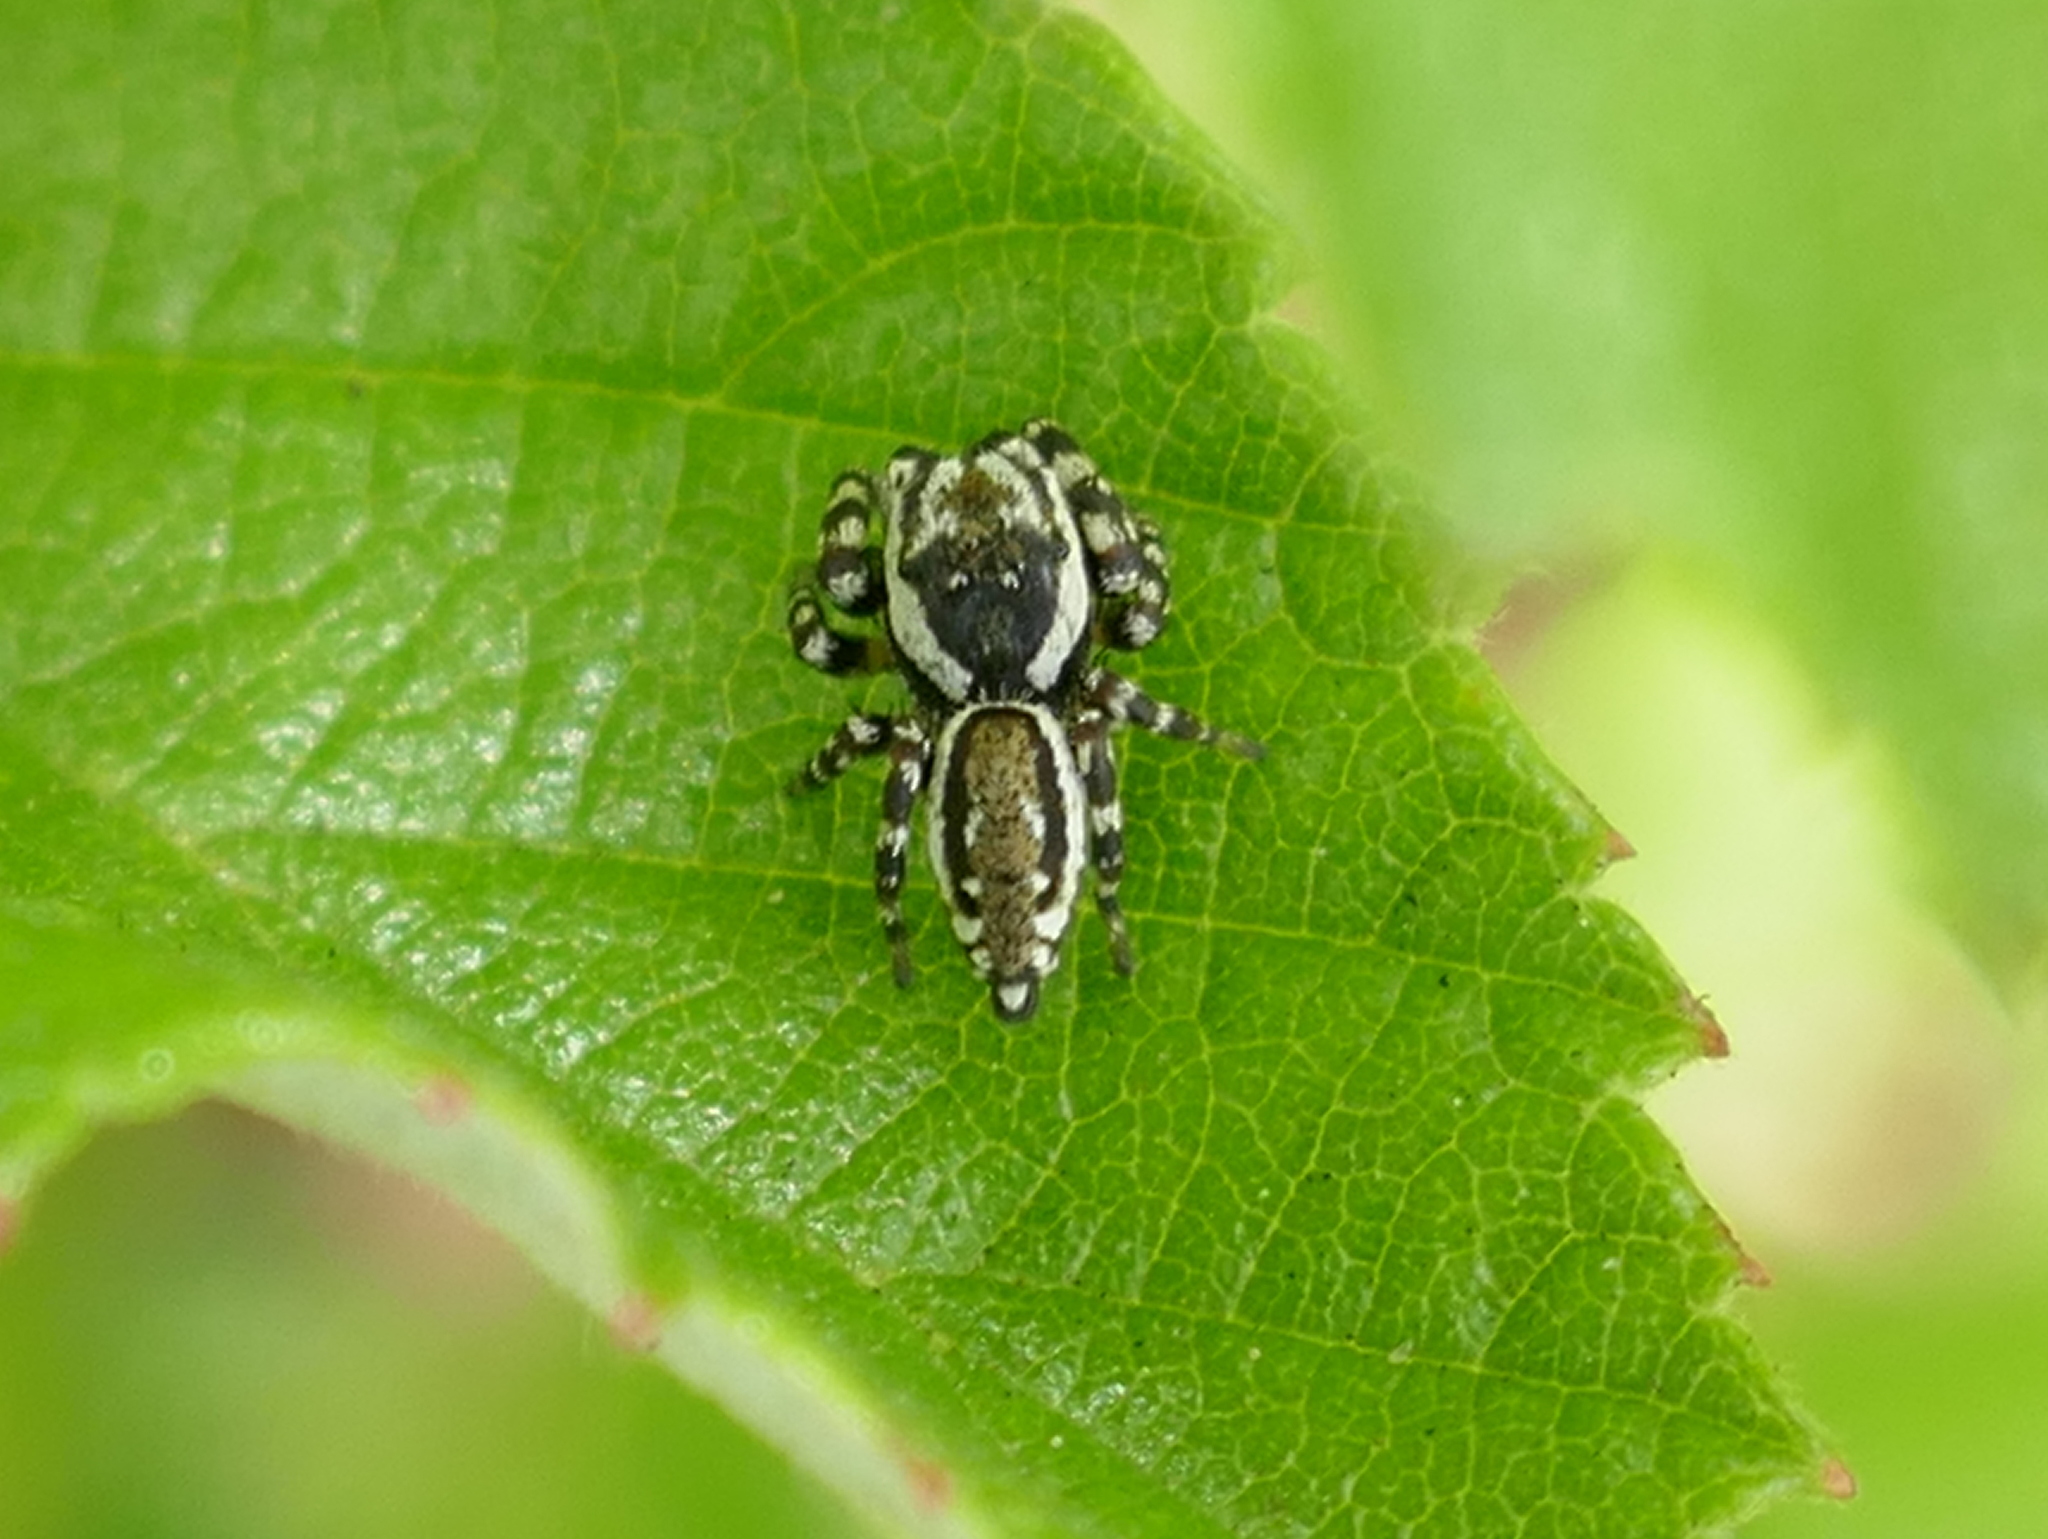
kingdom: Animalia
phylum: Arthropoda
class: Arachnida
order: Araneae
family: Salticidae
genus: Pelegrina
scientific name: Pelegrina galathea
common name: Jumping spiders
